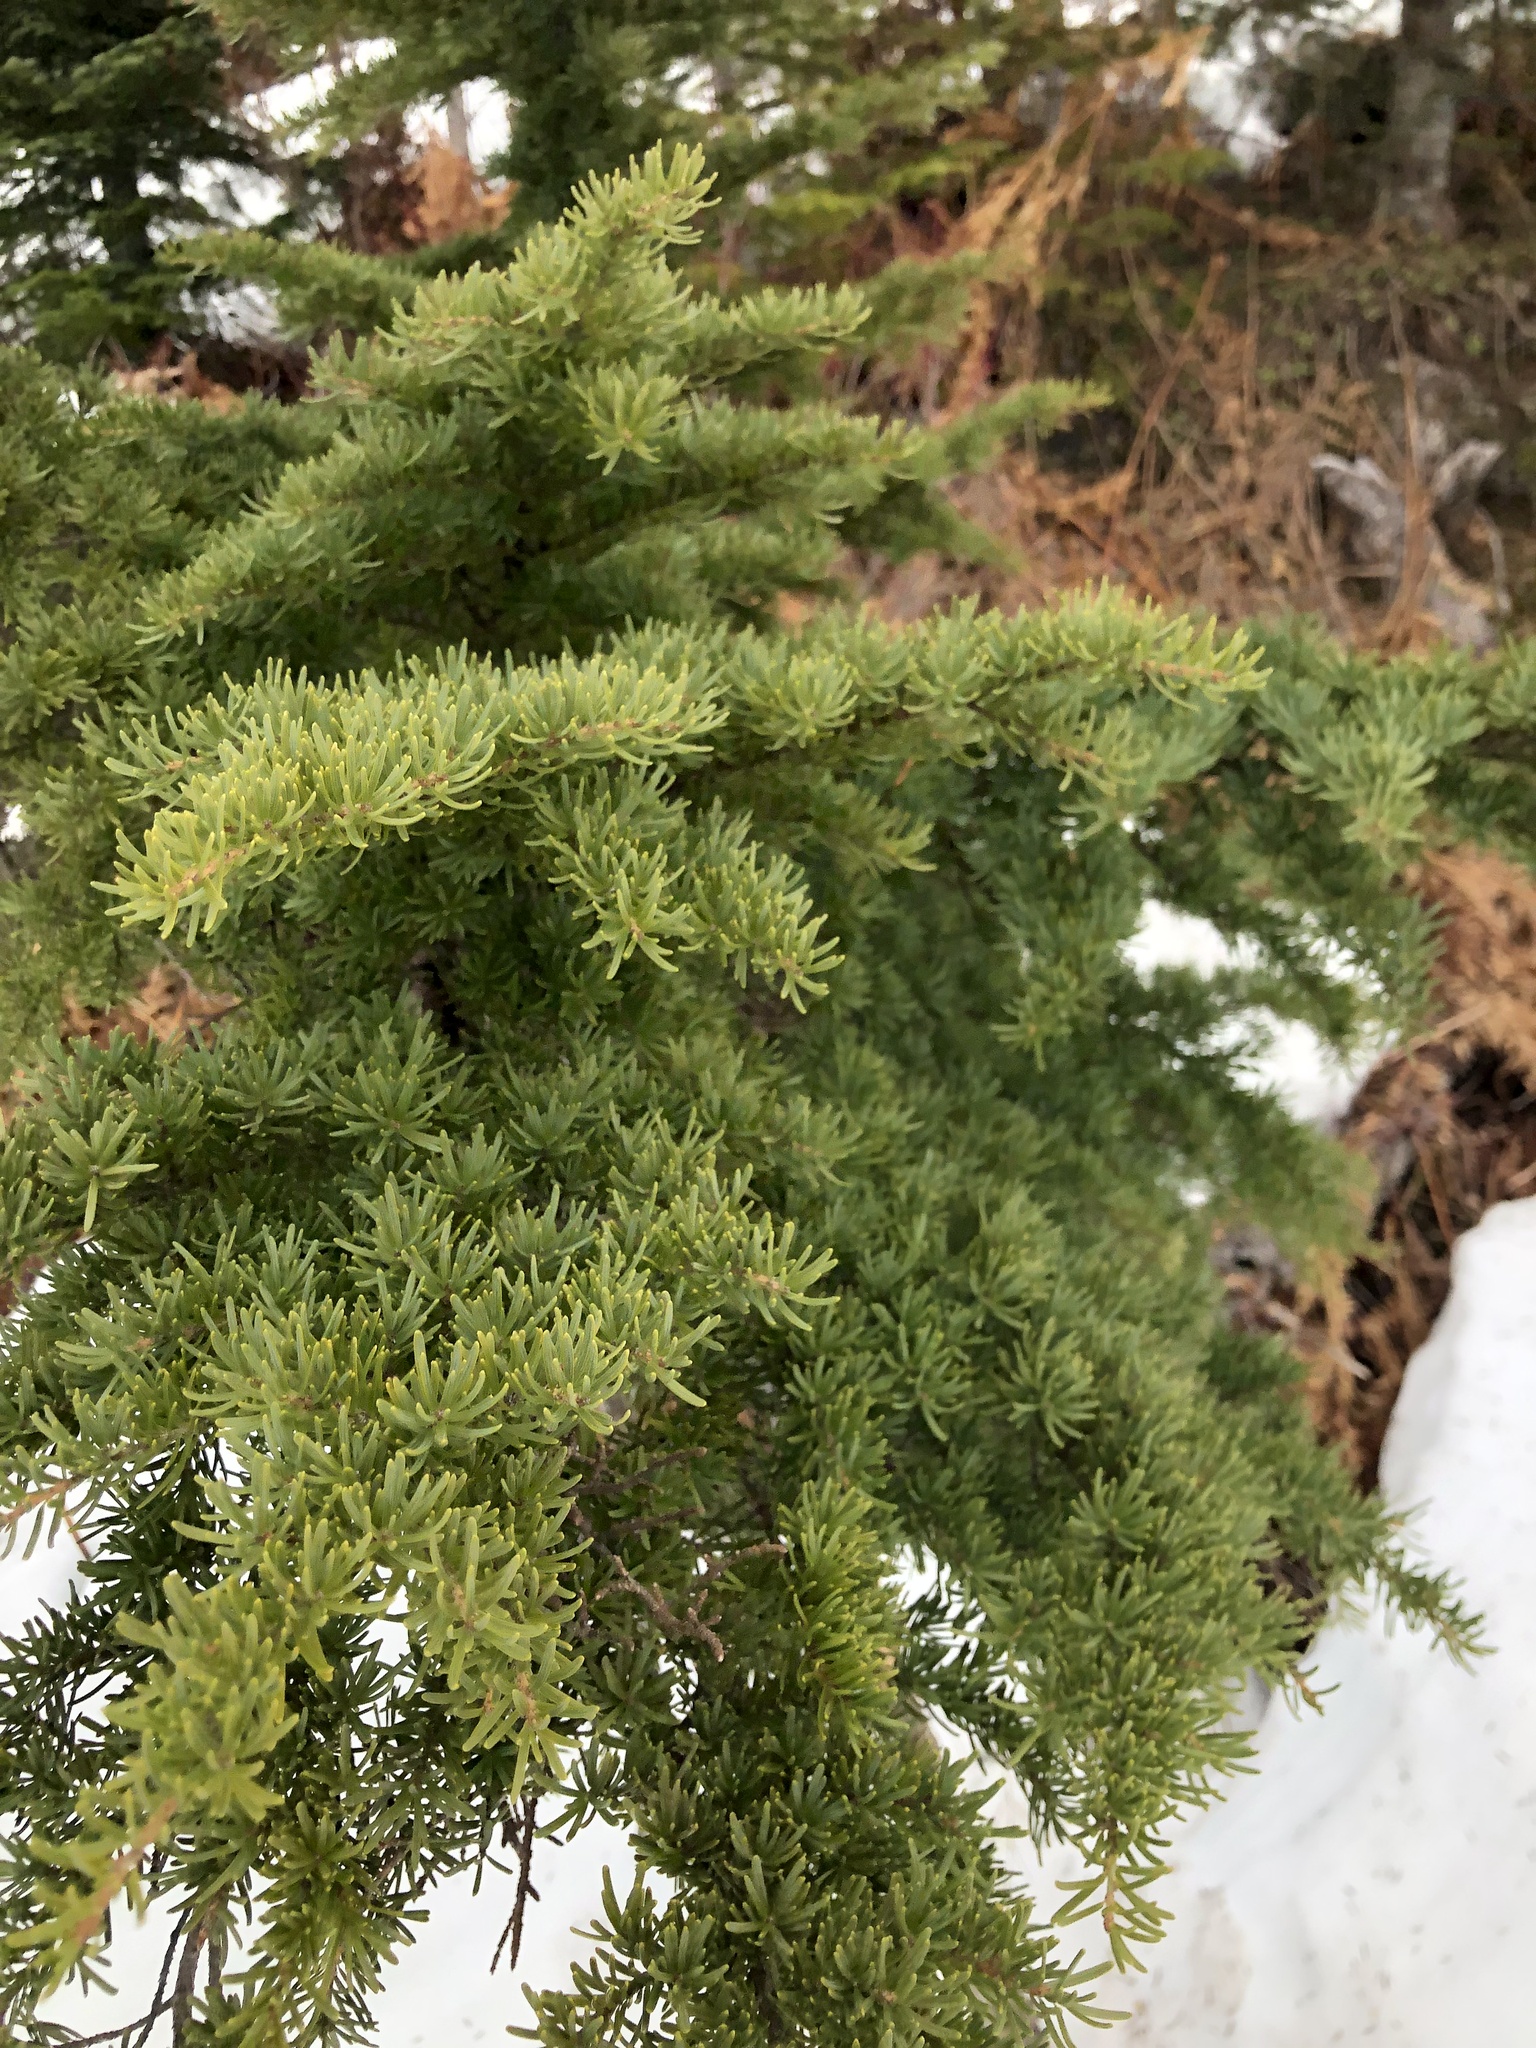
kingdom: Plantae
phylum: Tracheophyta
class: Pinopsida
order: Pinales
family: Pinaceae
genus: Tsuga
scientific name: Tsuga mertensiana
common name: Mountain hemlock
